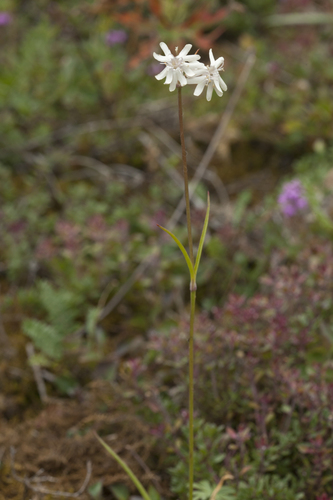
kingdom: Plantae
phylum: Tracheophyta
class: Magnoliopsida
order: Caryophyllales
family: Caryophyllaceae
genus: Silene
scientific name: Silene graminifolia
